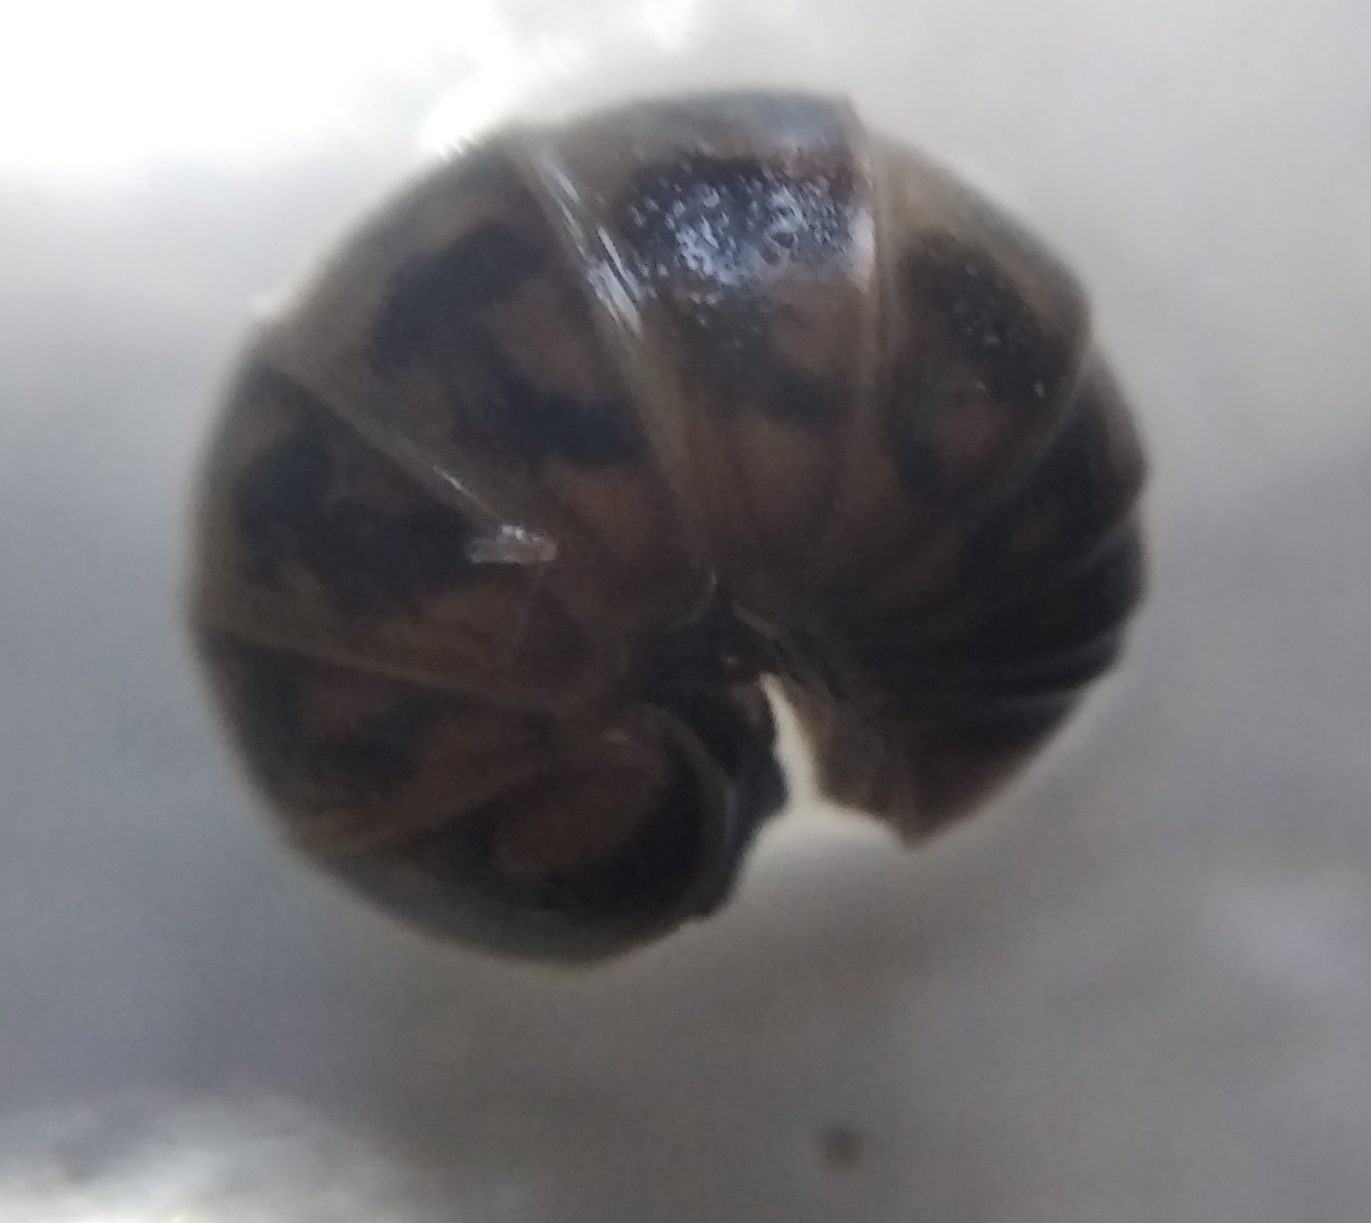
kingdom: Animalia
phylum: Arthropoda
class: Diplopoda
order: Glomerida
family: Glomeridae
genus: Glomeris
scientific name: Glomeris hexasticha
